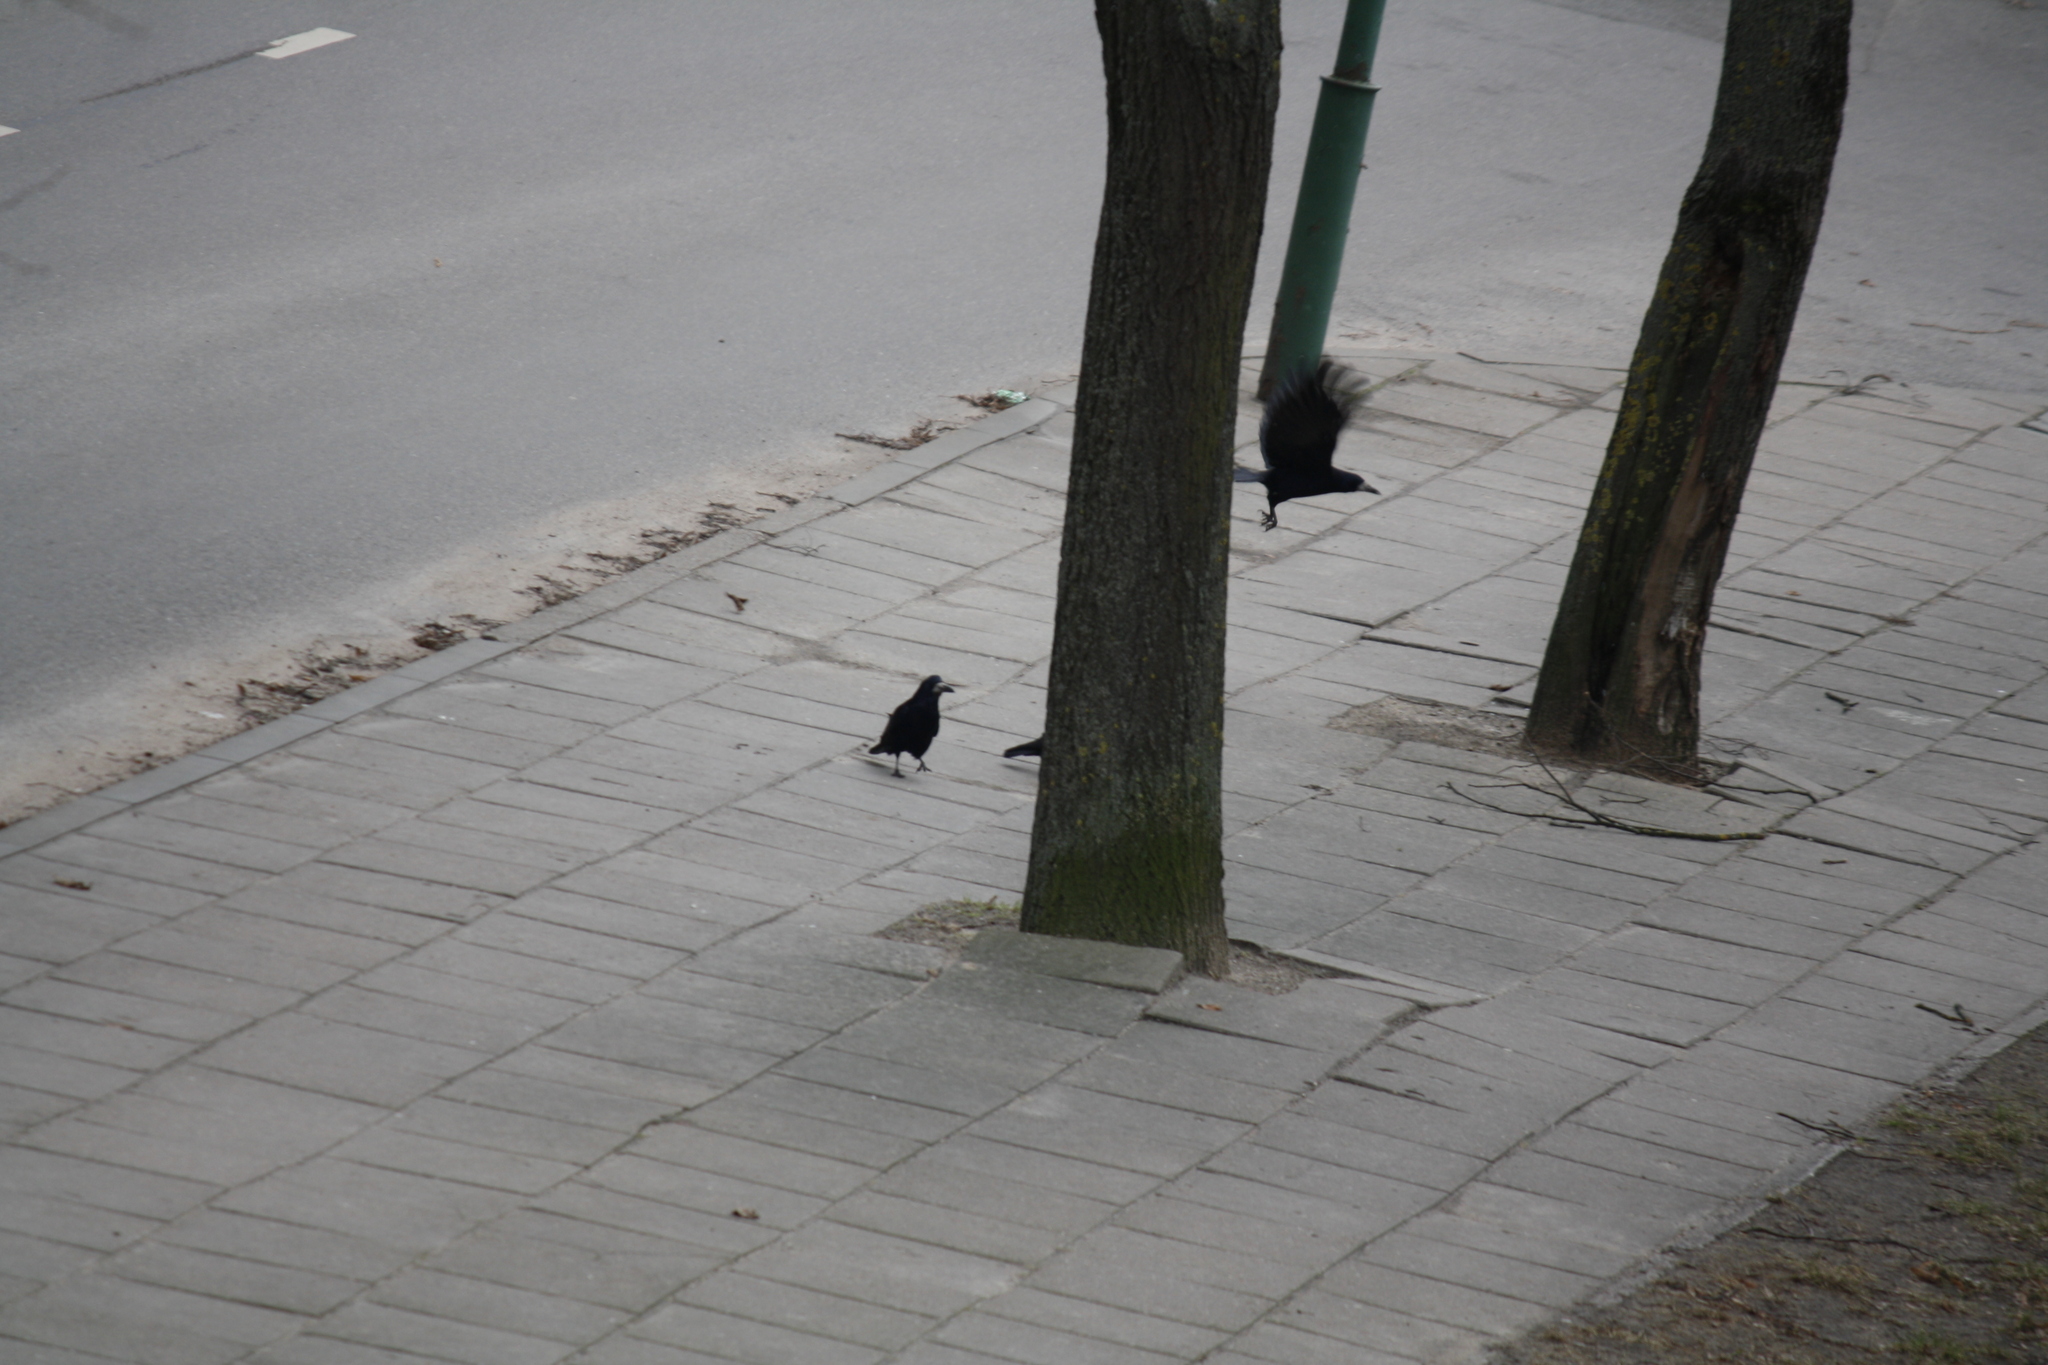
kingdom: Animalia
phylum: Chordata
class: Aves
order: Passeriformes
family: Corvidae
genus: Corvus
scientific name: Corvus frugilegus
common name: Rook
